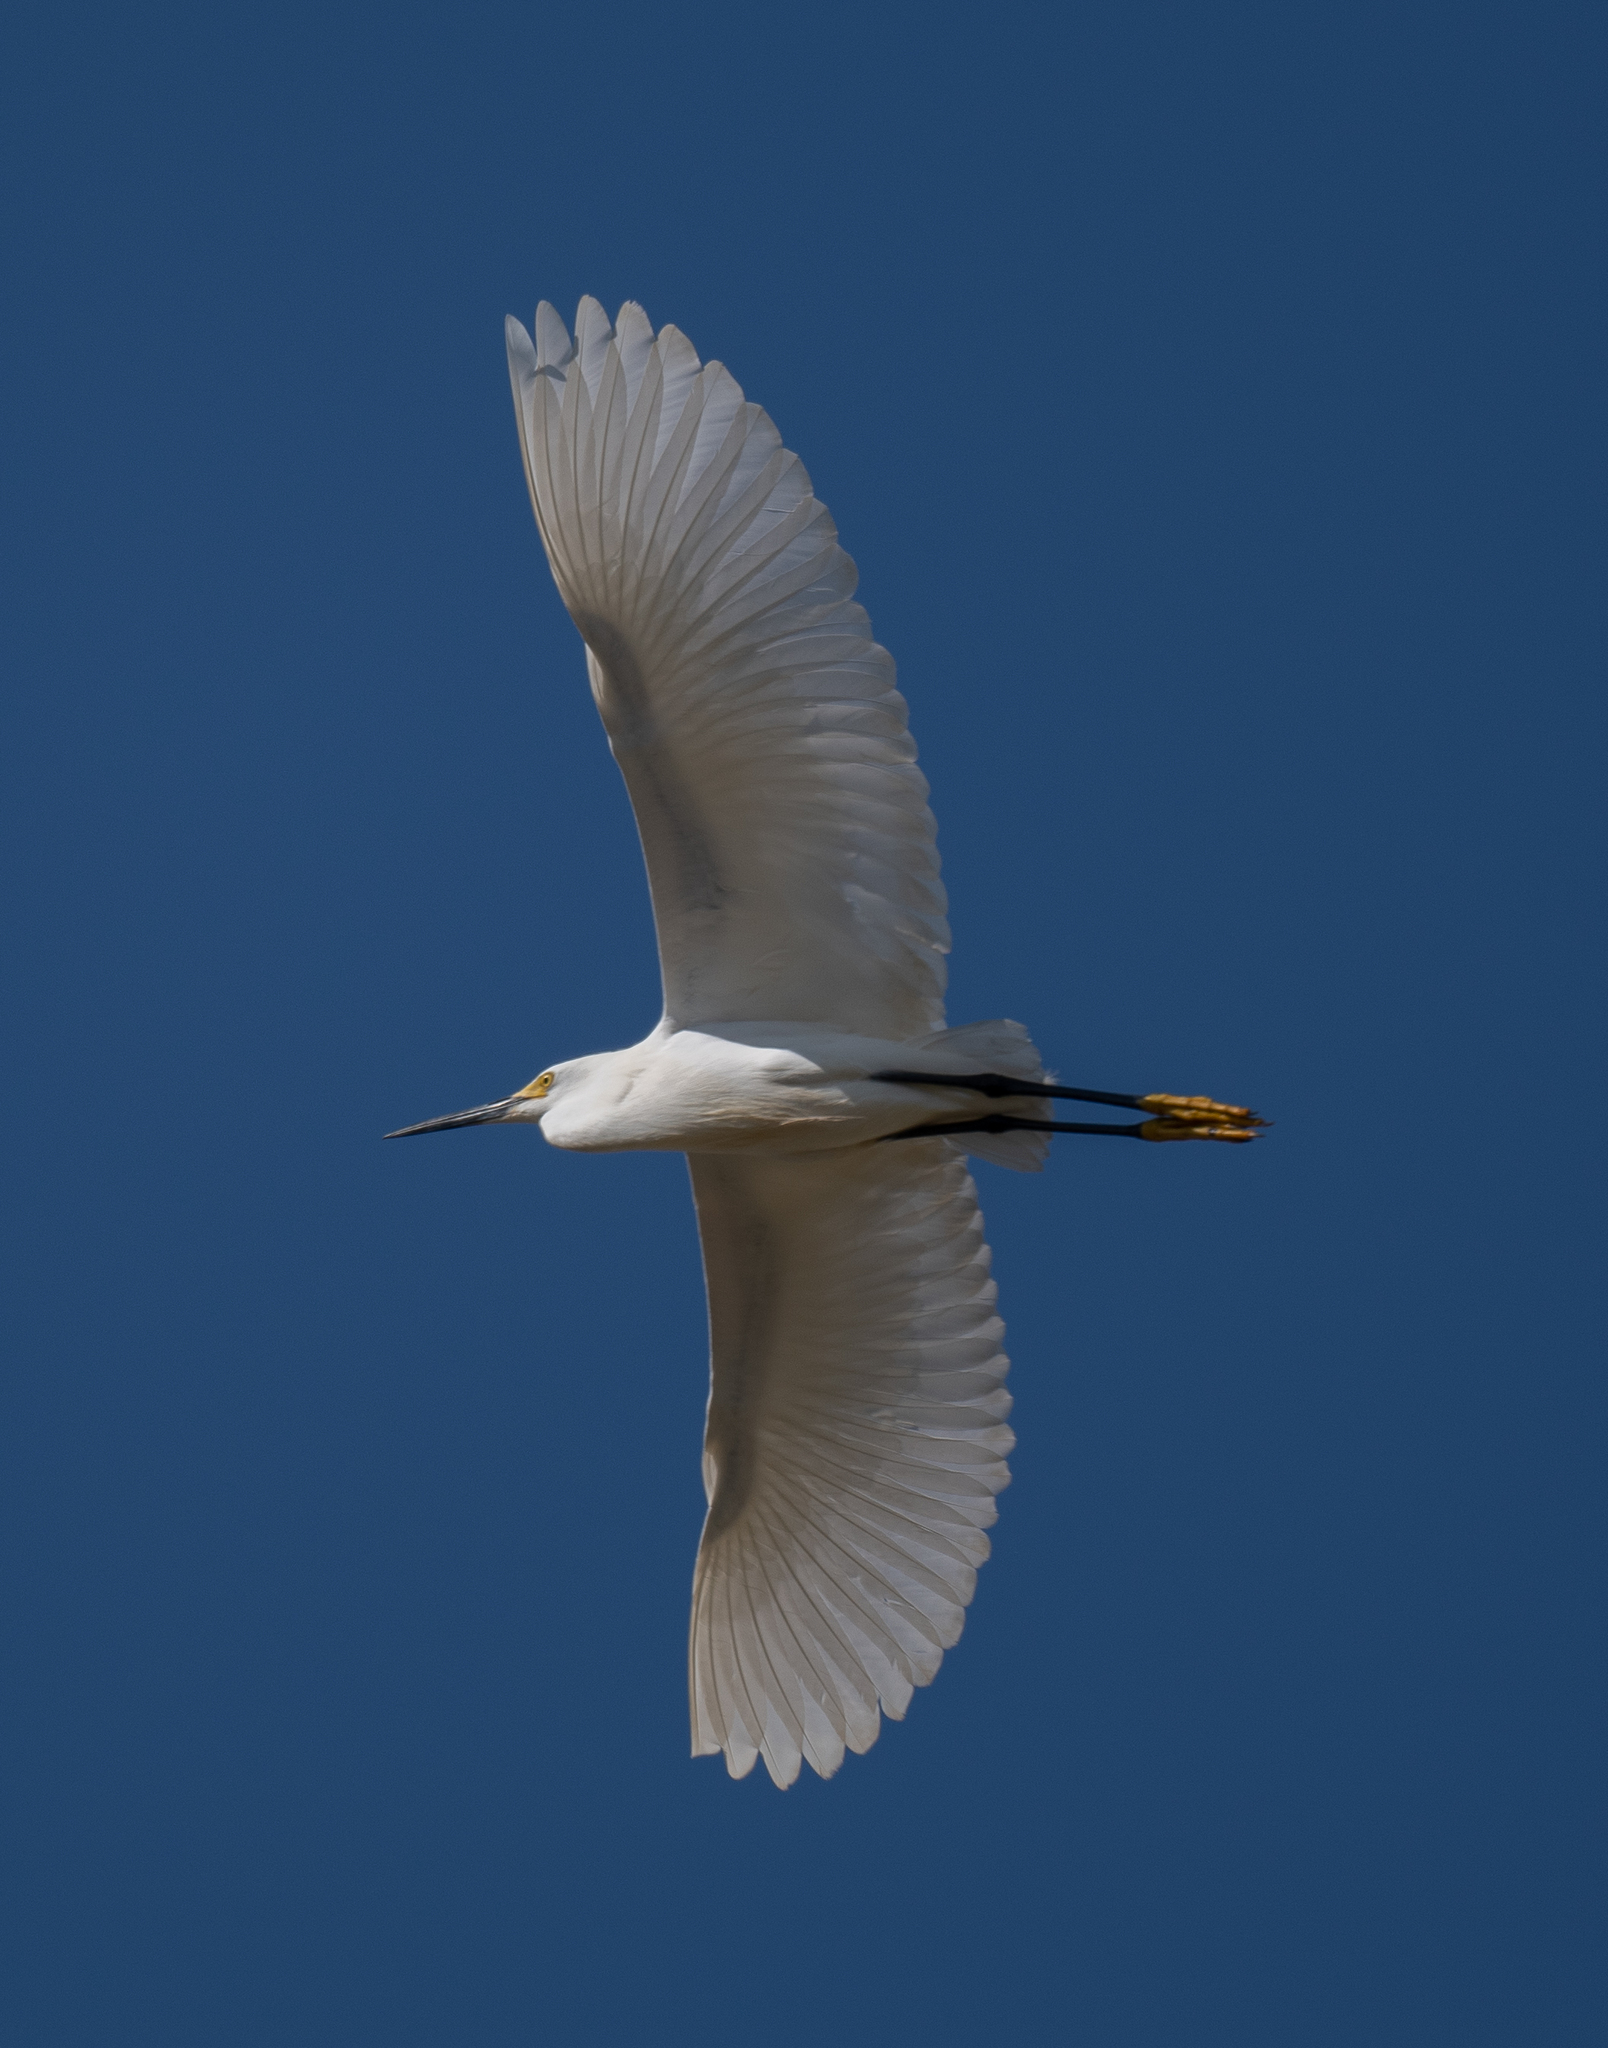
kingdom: Animalia
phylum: Chordata
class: Aves
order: Pelecaniformes
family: Ardeidae
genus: Egretta
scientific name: Egretta thula
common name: Snowy egret
